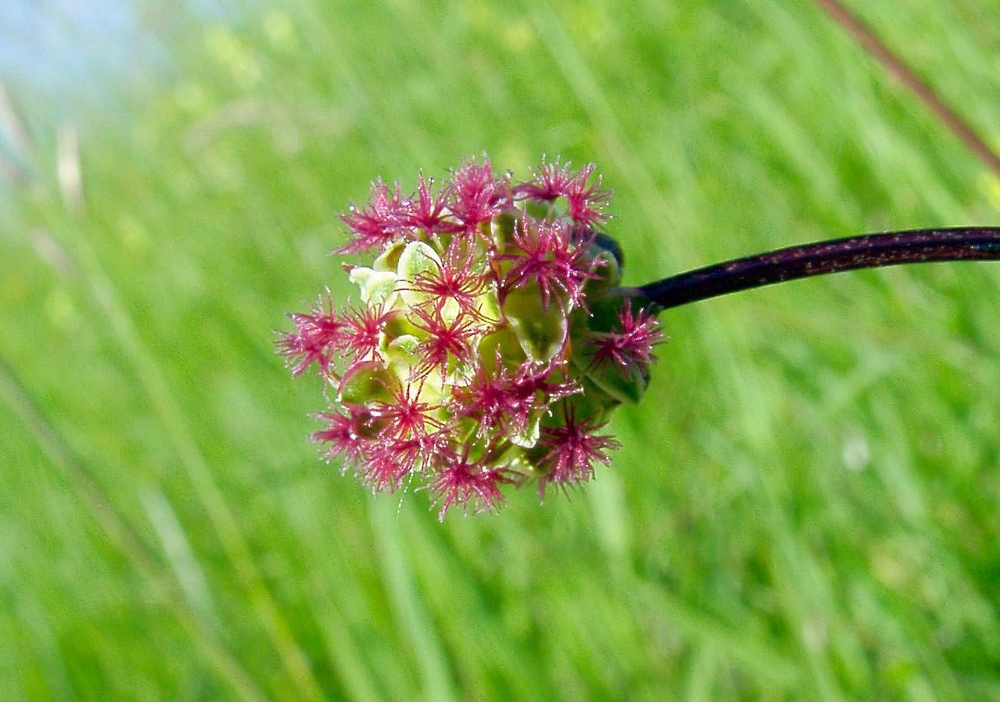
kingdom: Plantae
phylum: Tracheophyta
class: Magnoliopsida
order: Rosales
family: Rosaceae
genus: Poterium
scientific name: Poterium sanguisorba
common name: Salad burnet
